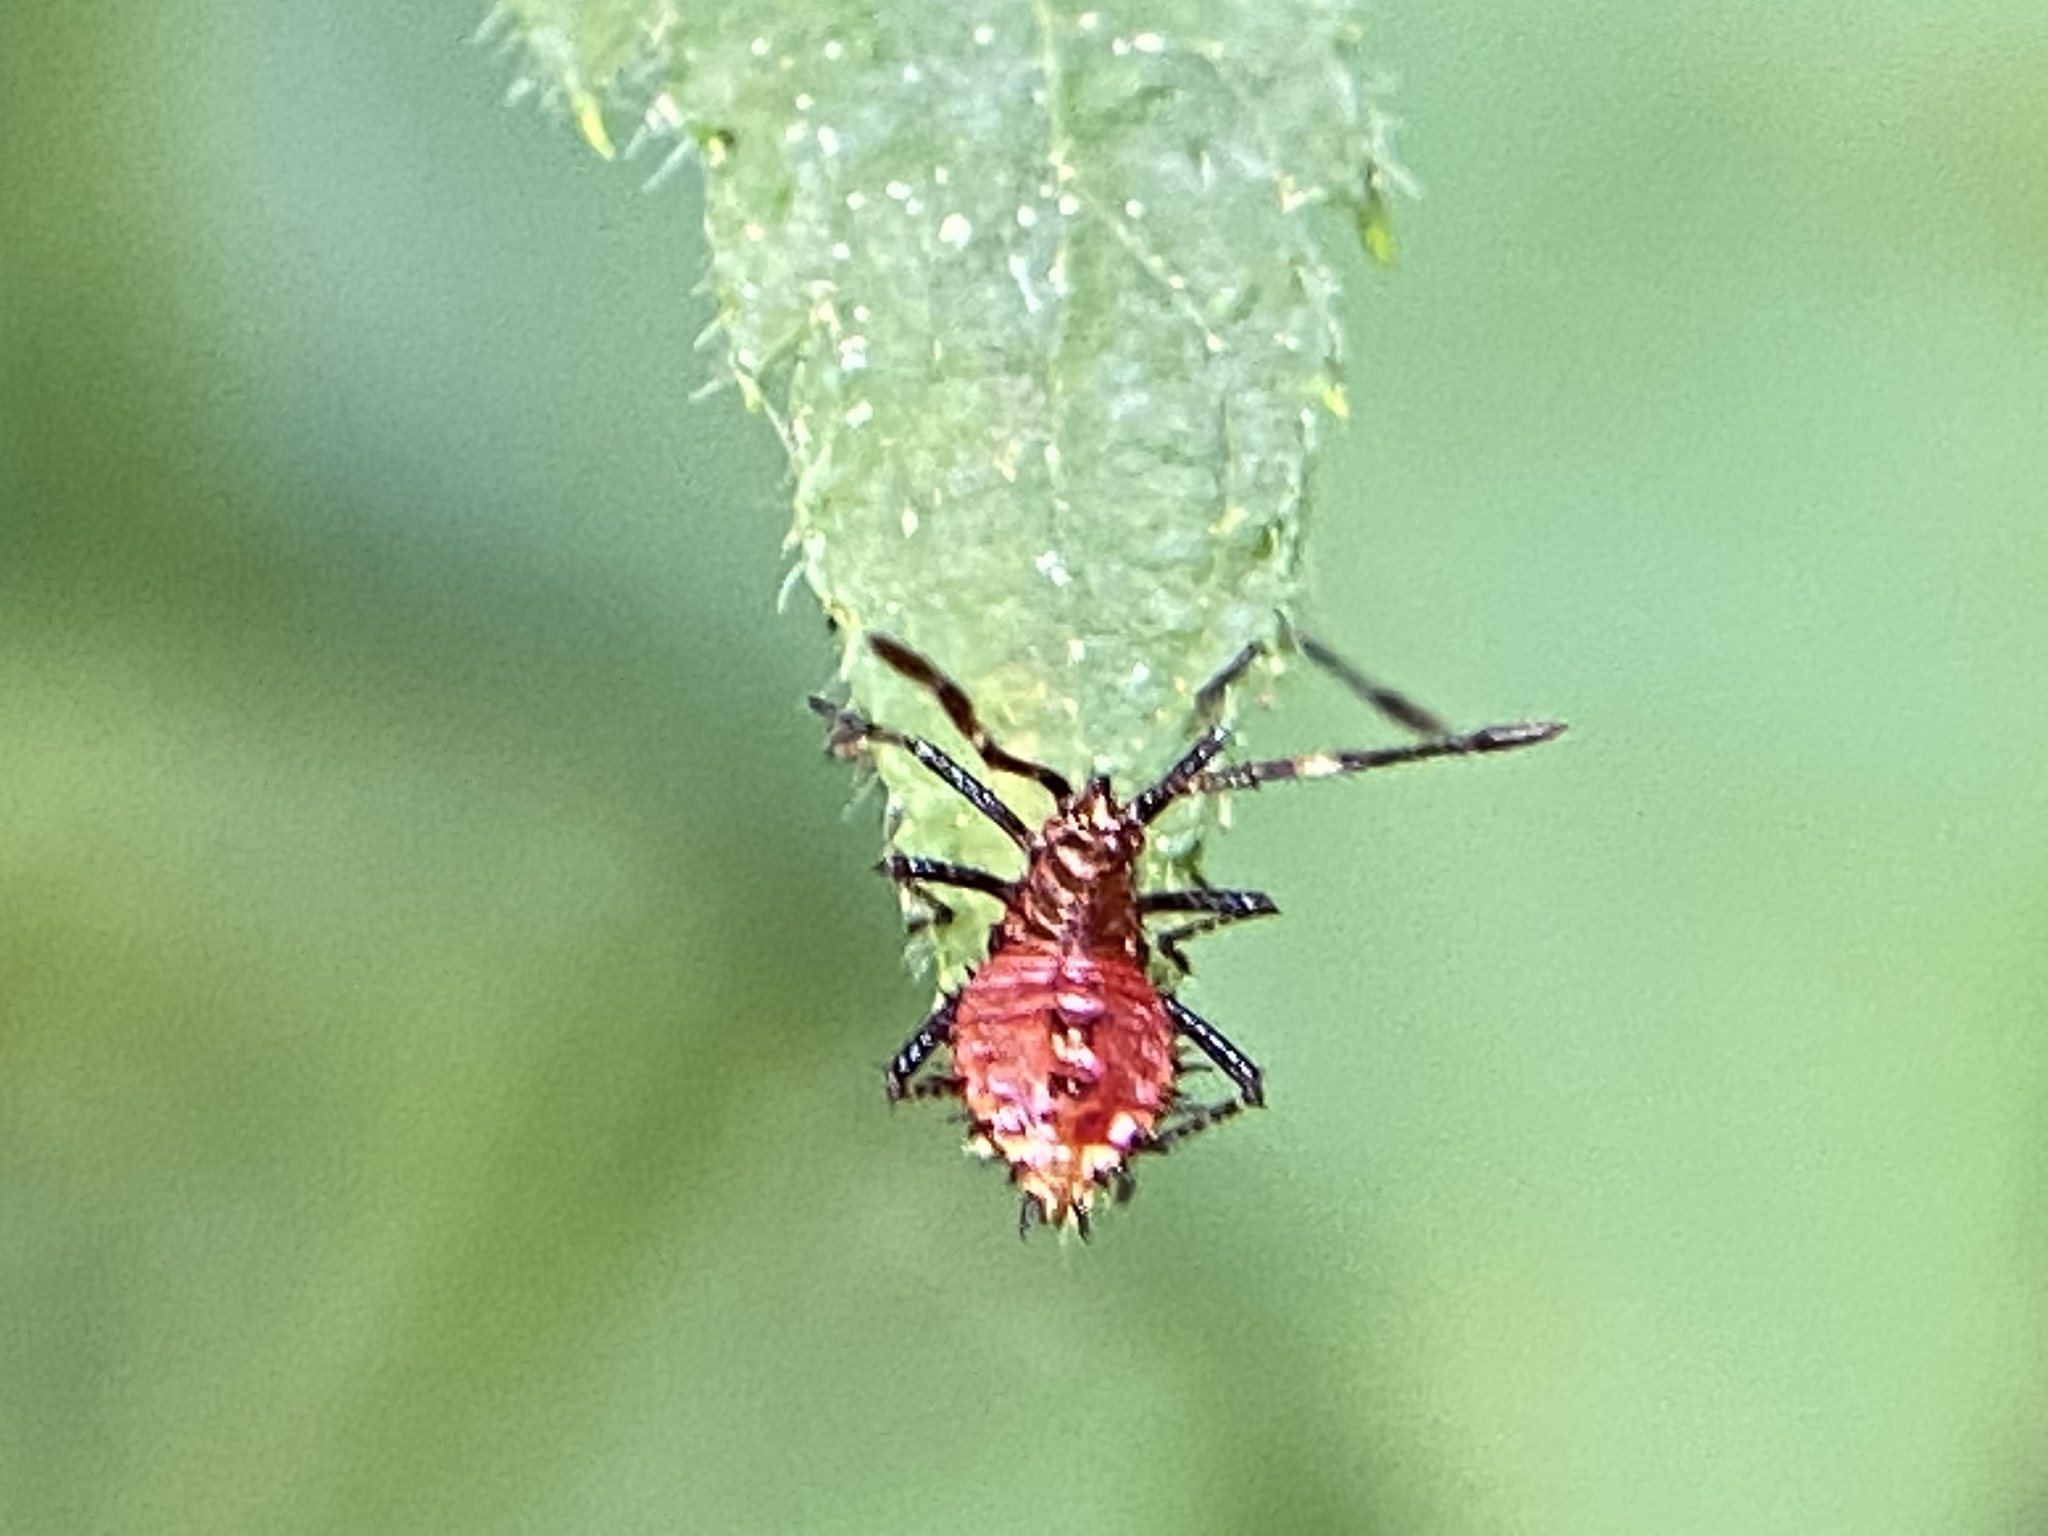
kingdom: Animalia
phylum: Arthropoda
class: Insecta
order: Hemiptera
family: Coreidae
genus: Euthochtha
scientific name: Euthochtha galeator
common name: Helmeted squash bug
